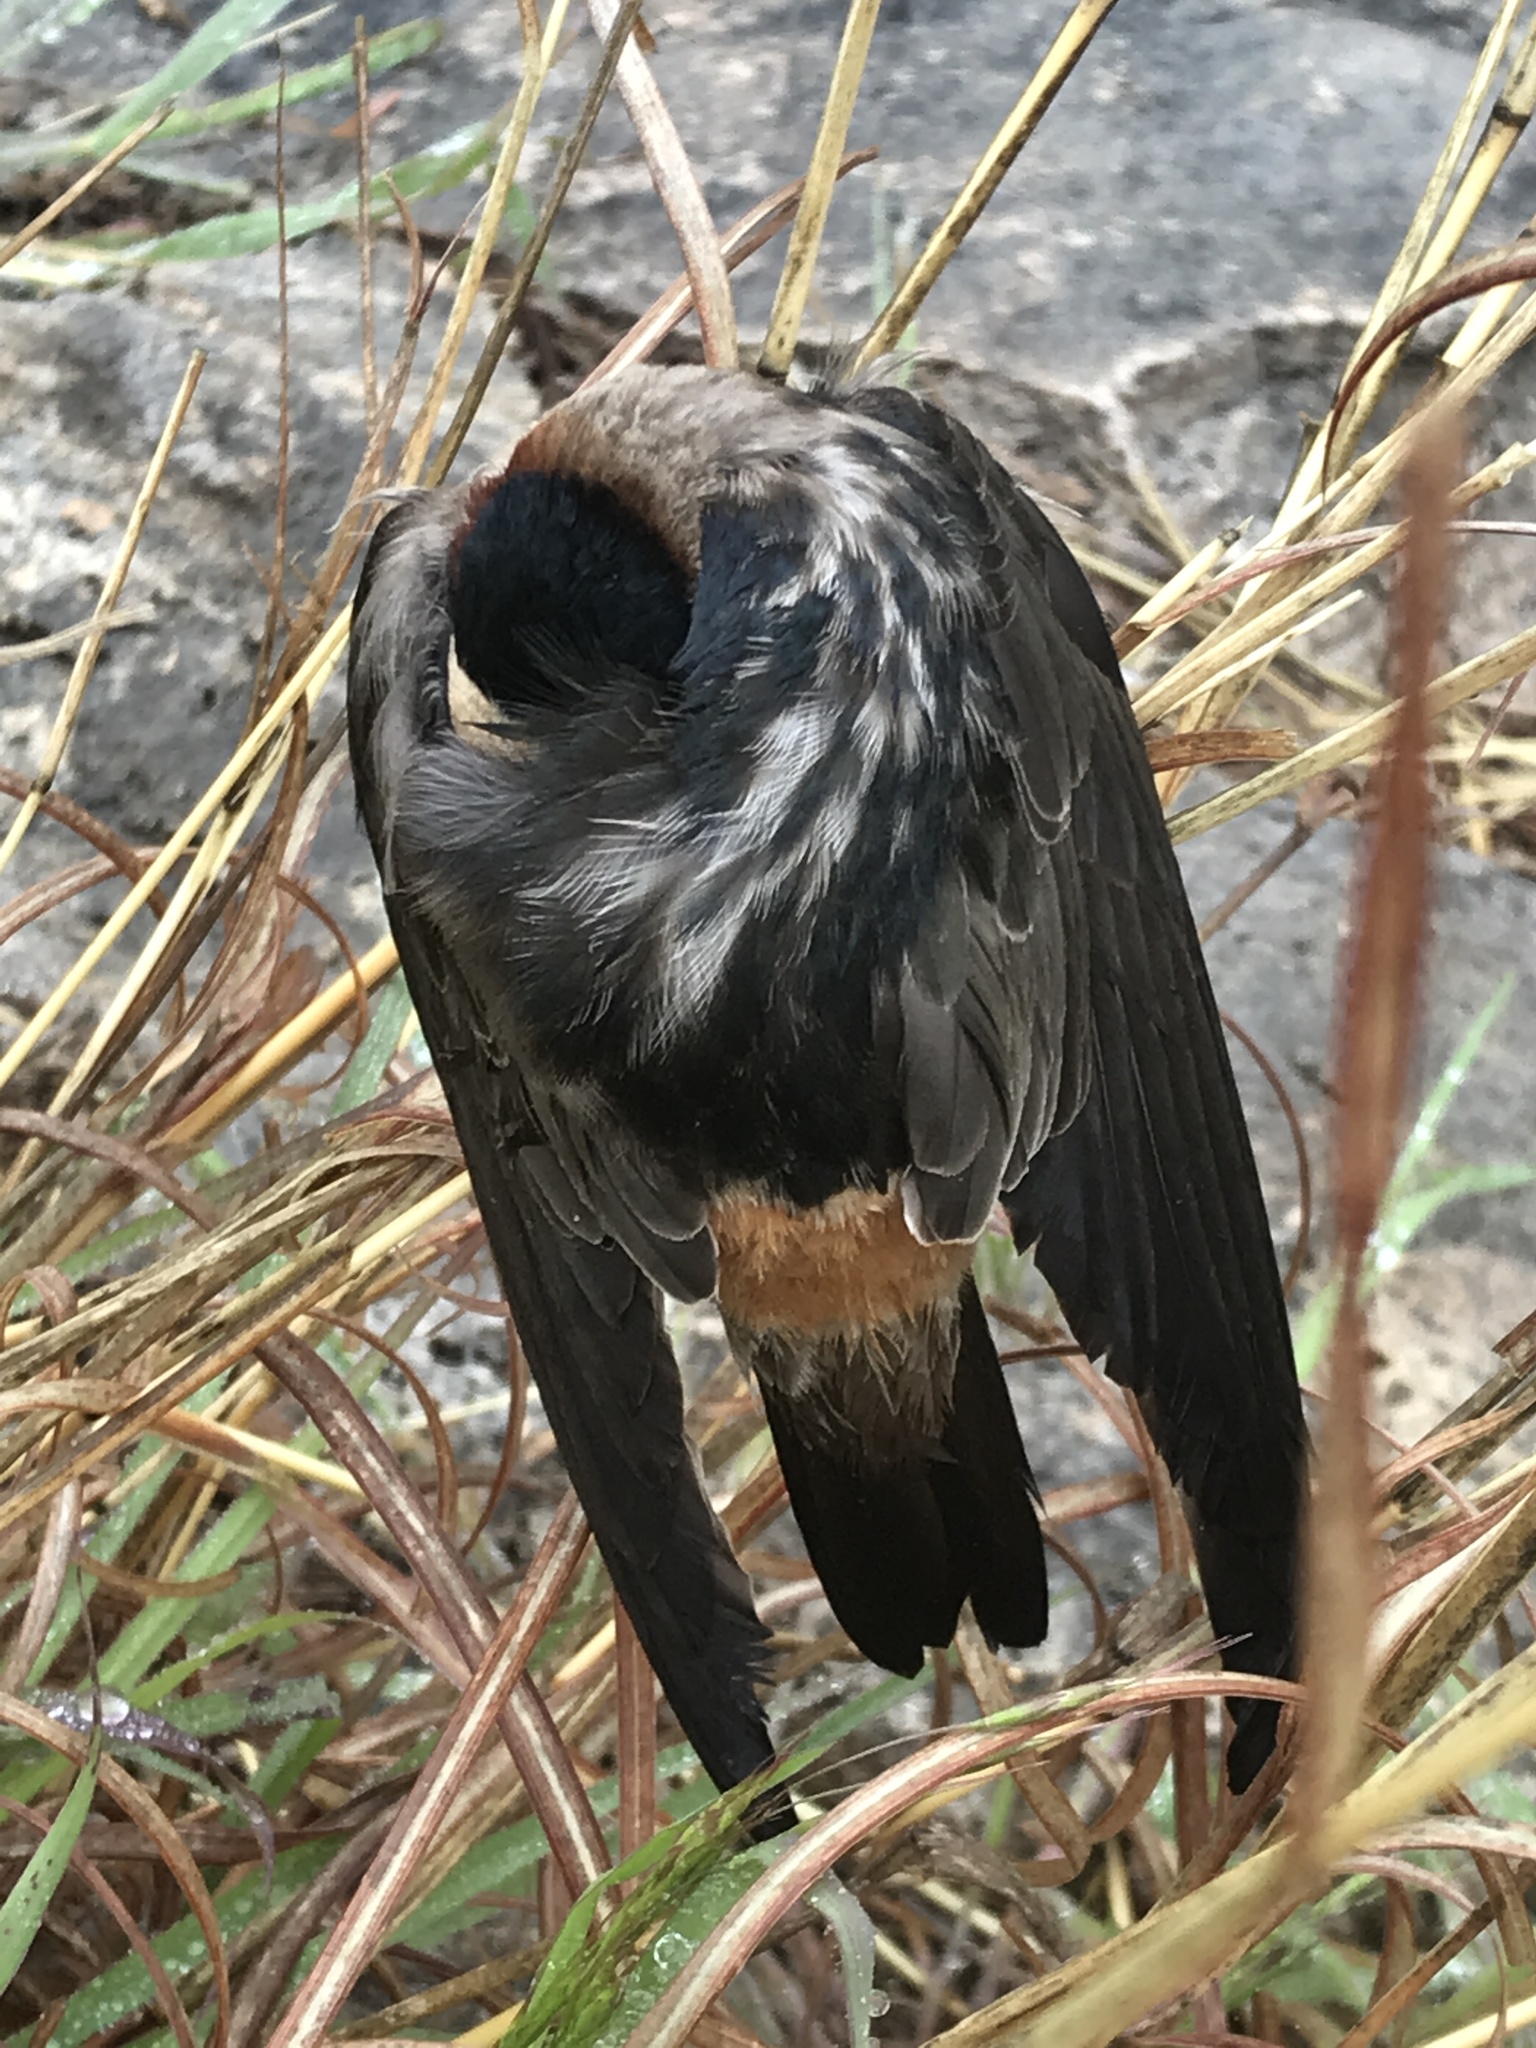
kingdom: Animalia
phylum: Chordata
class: Aves
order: Passeriformes
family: Hirundinidae
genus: Petrochelidon
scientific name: Petrochelidon pyrrhonota
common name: American cliff swallow
